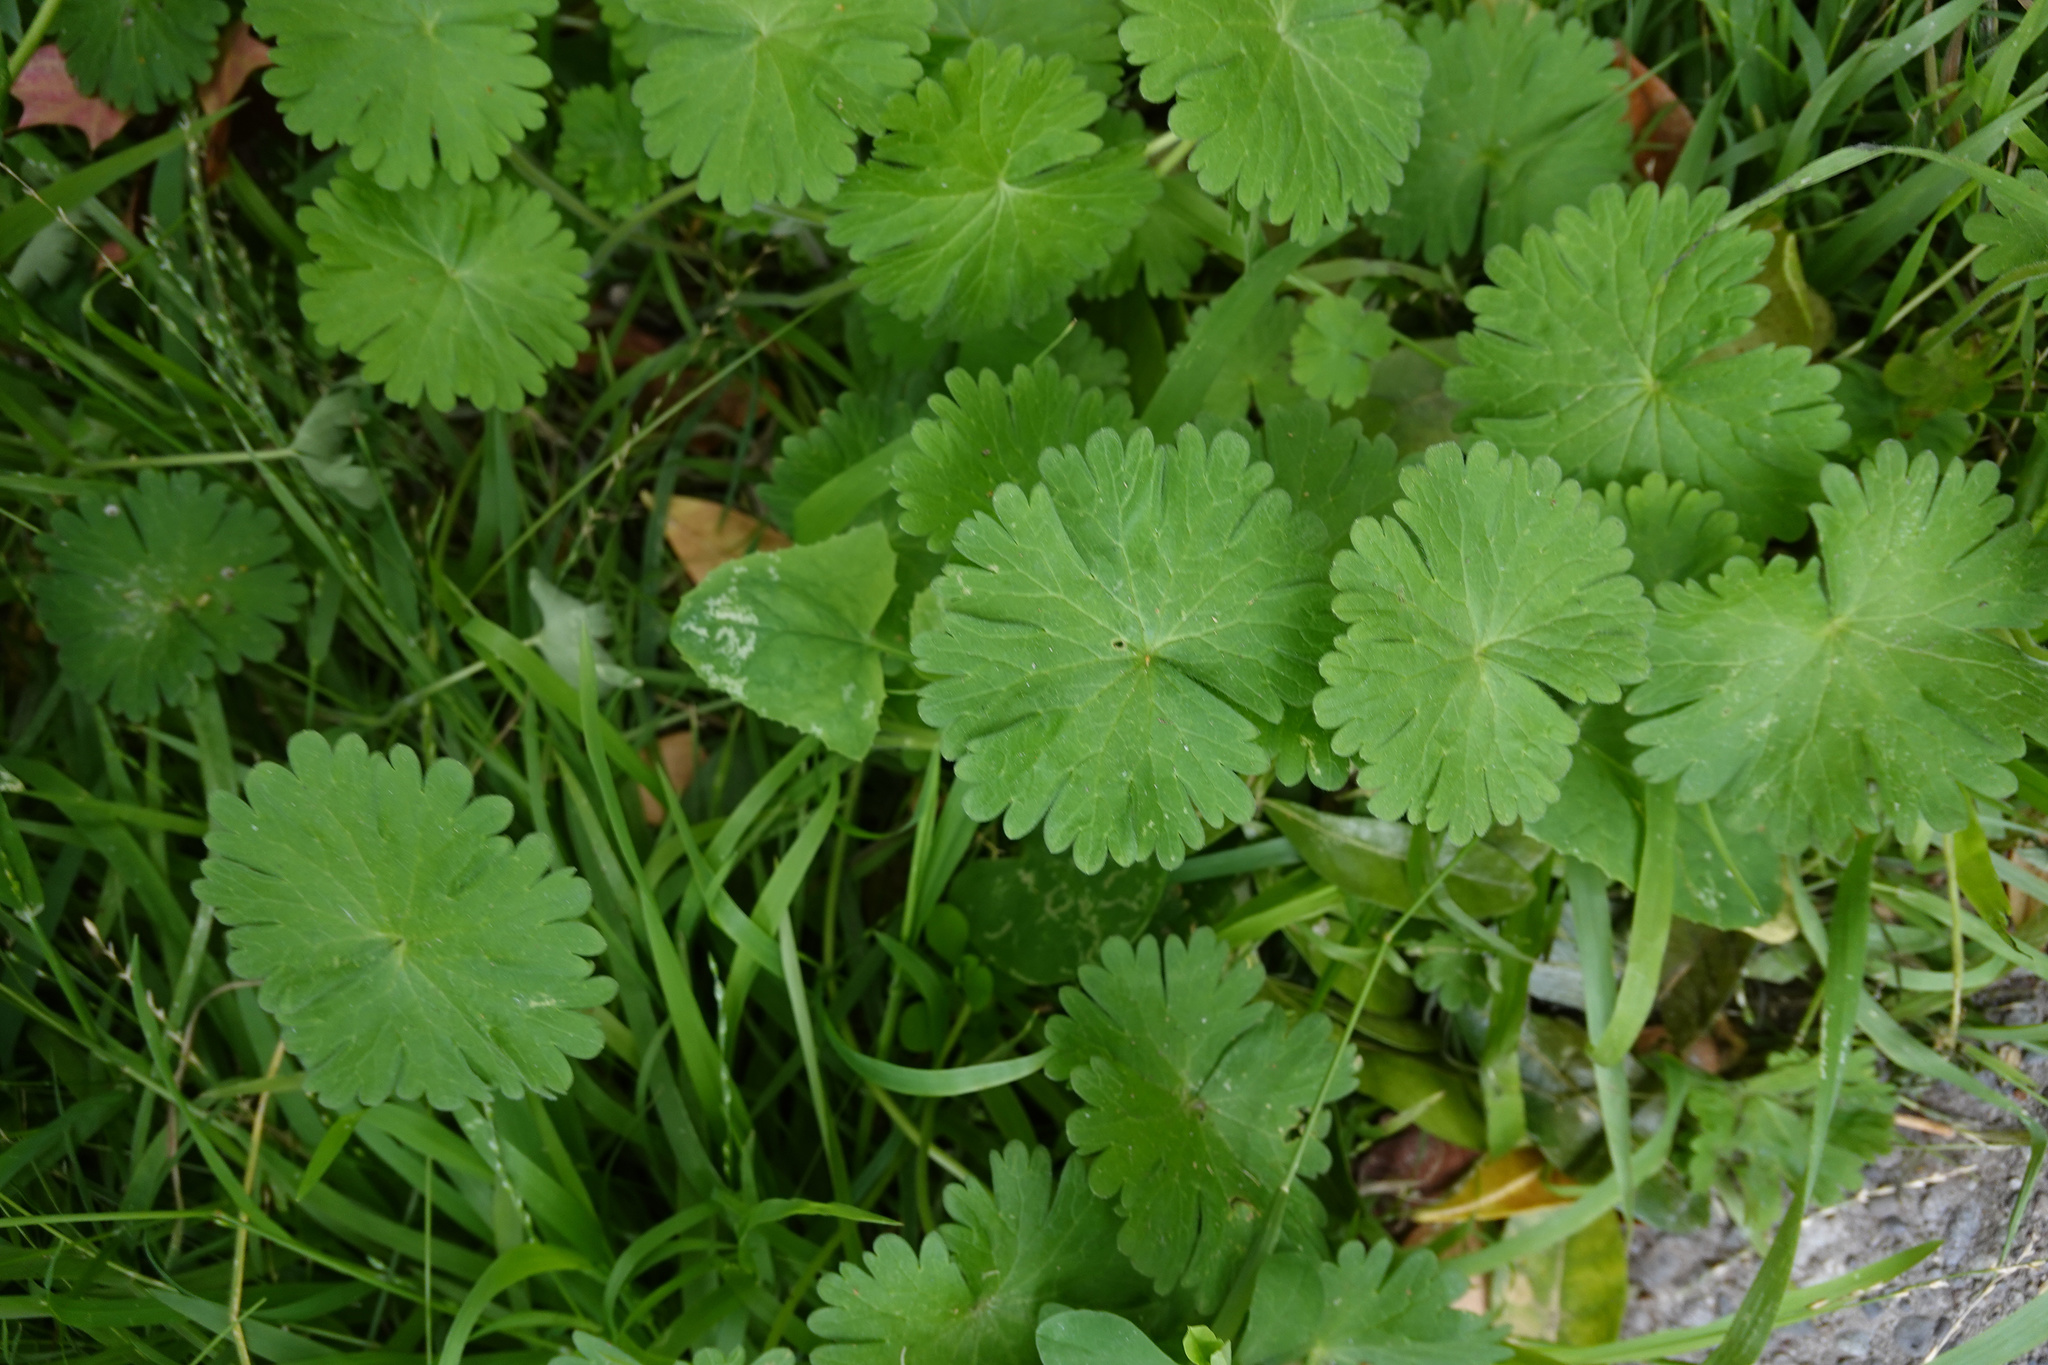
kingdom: Plantae
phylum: Tracheophyta
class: Magnoliopsida
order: Geraniales
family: Geraniaceae
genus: Geranium
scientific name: Geranium molle
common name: Dove's-foot crane's-bill
